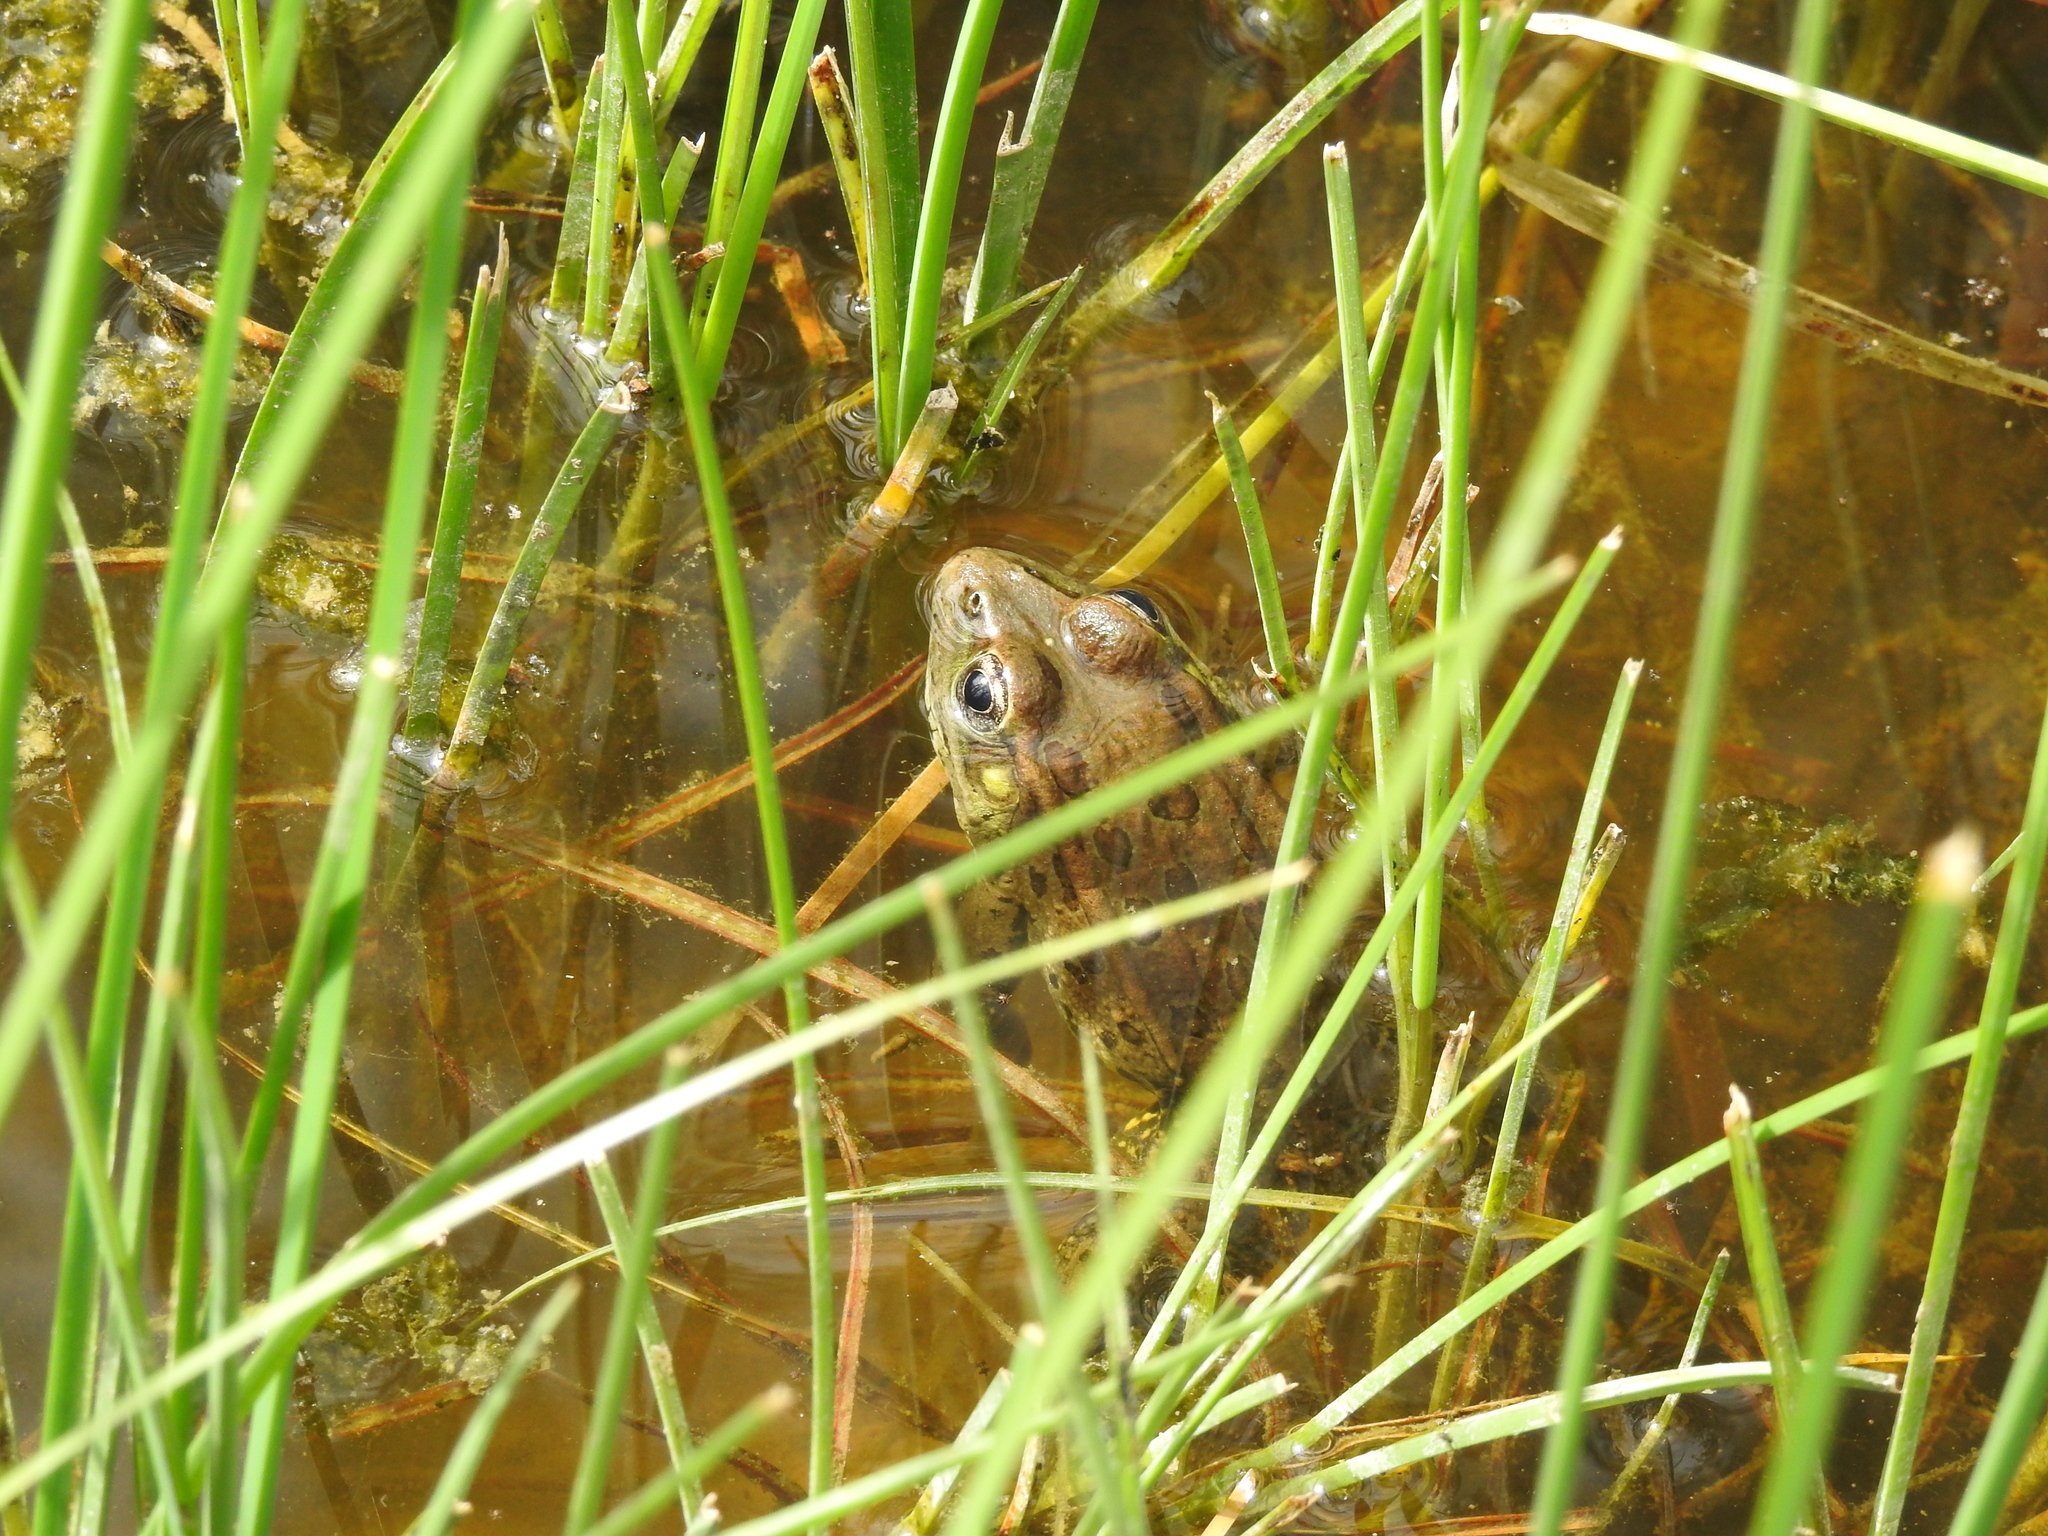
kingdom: Animalia
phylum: Chordata
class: Amphibia
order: Anura
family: Ranidae
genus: Lithobates
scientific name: Lithobates yavapaiensis
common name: Lowland leopard frog
